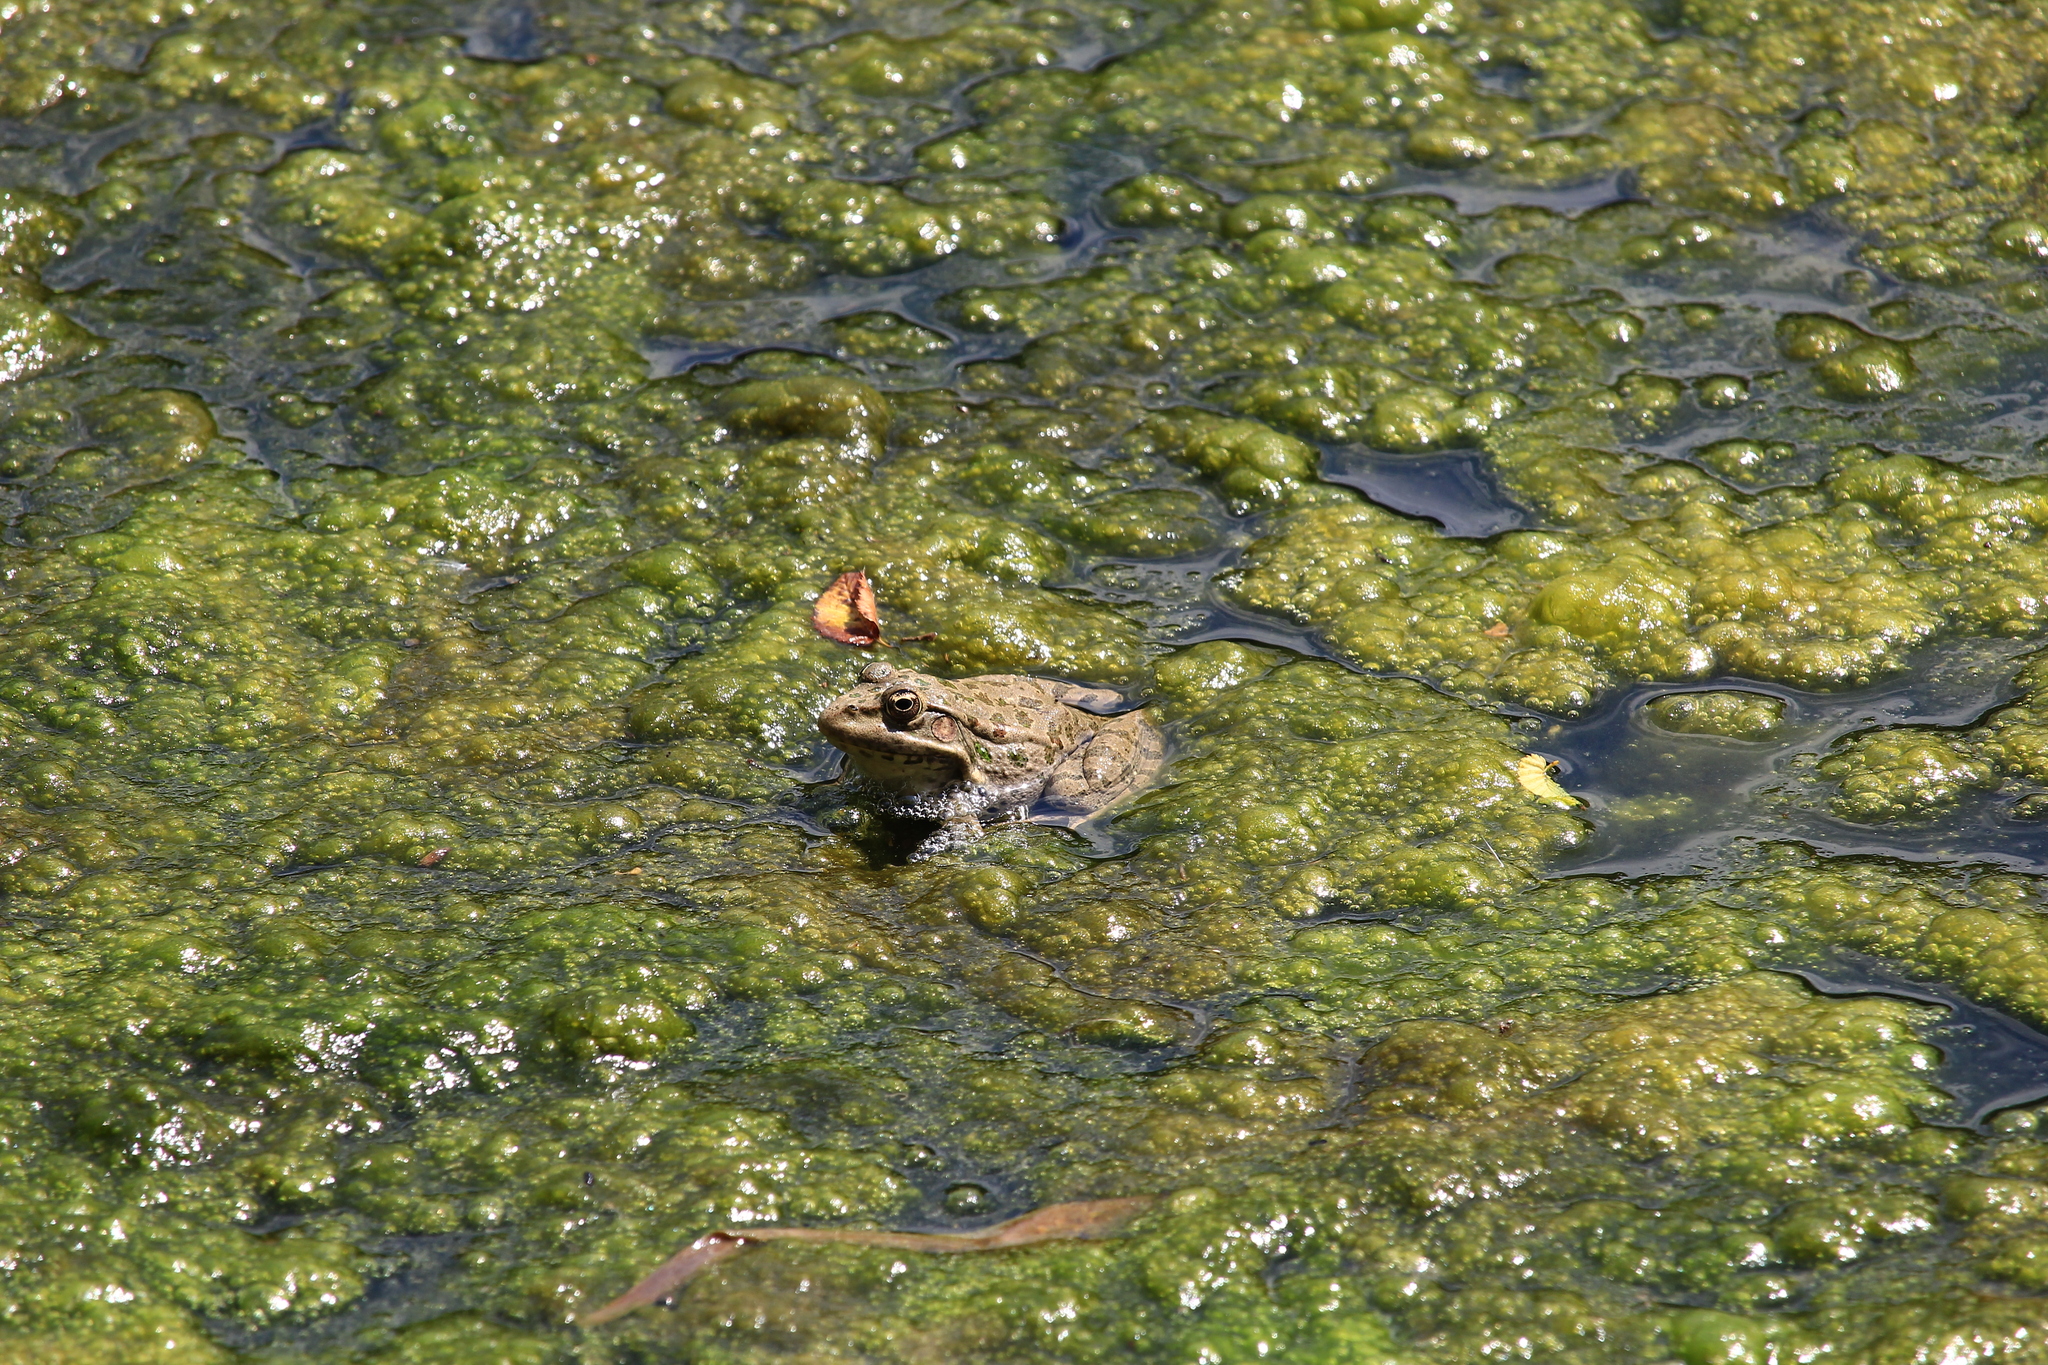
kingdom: Animalia
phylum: Chordata
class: Amphibia
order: Anura
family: Ranidae
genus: Pelophylax
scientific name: Pelophylax ridibundus
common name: Marsh frog
